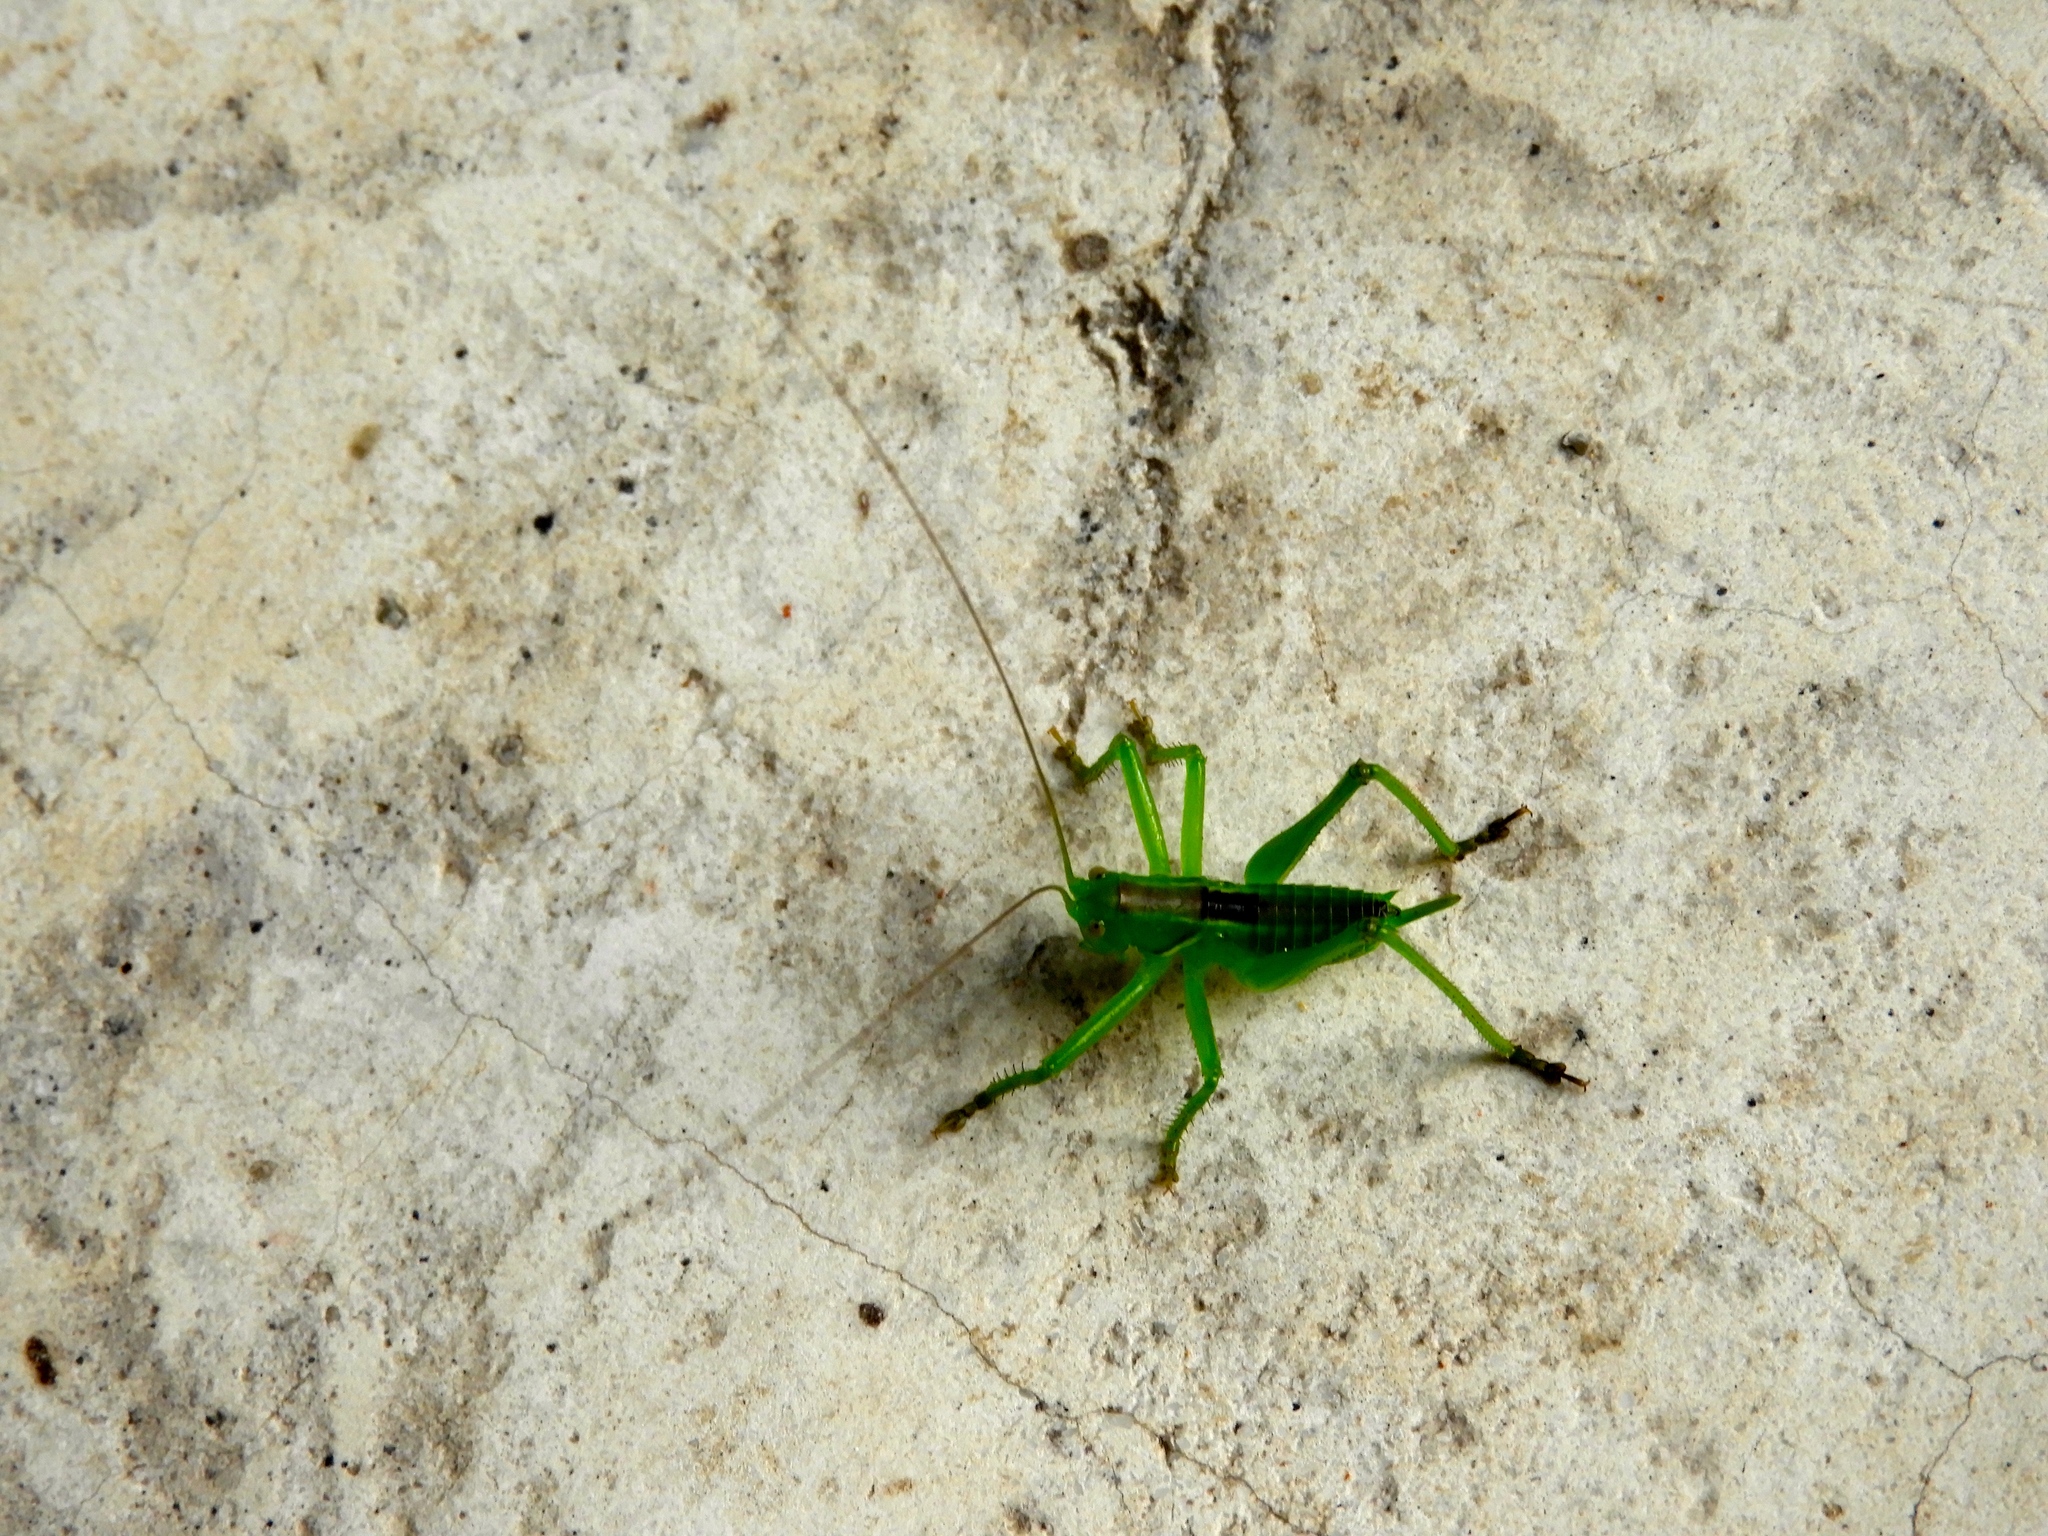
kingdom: Animalia
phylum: Arthropoda
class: Insecta
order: Orthoptera
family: Tettigoniidae
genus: Neobarrettia
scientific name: Neobarrettia sinaloae
